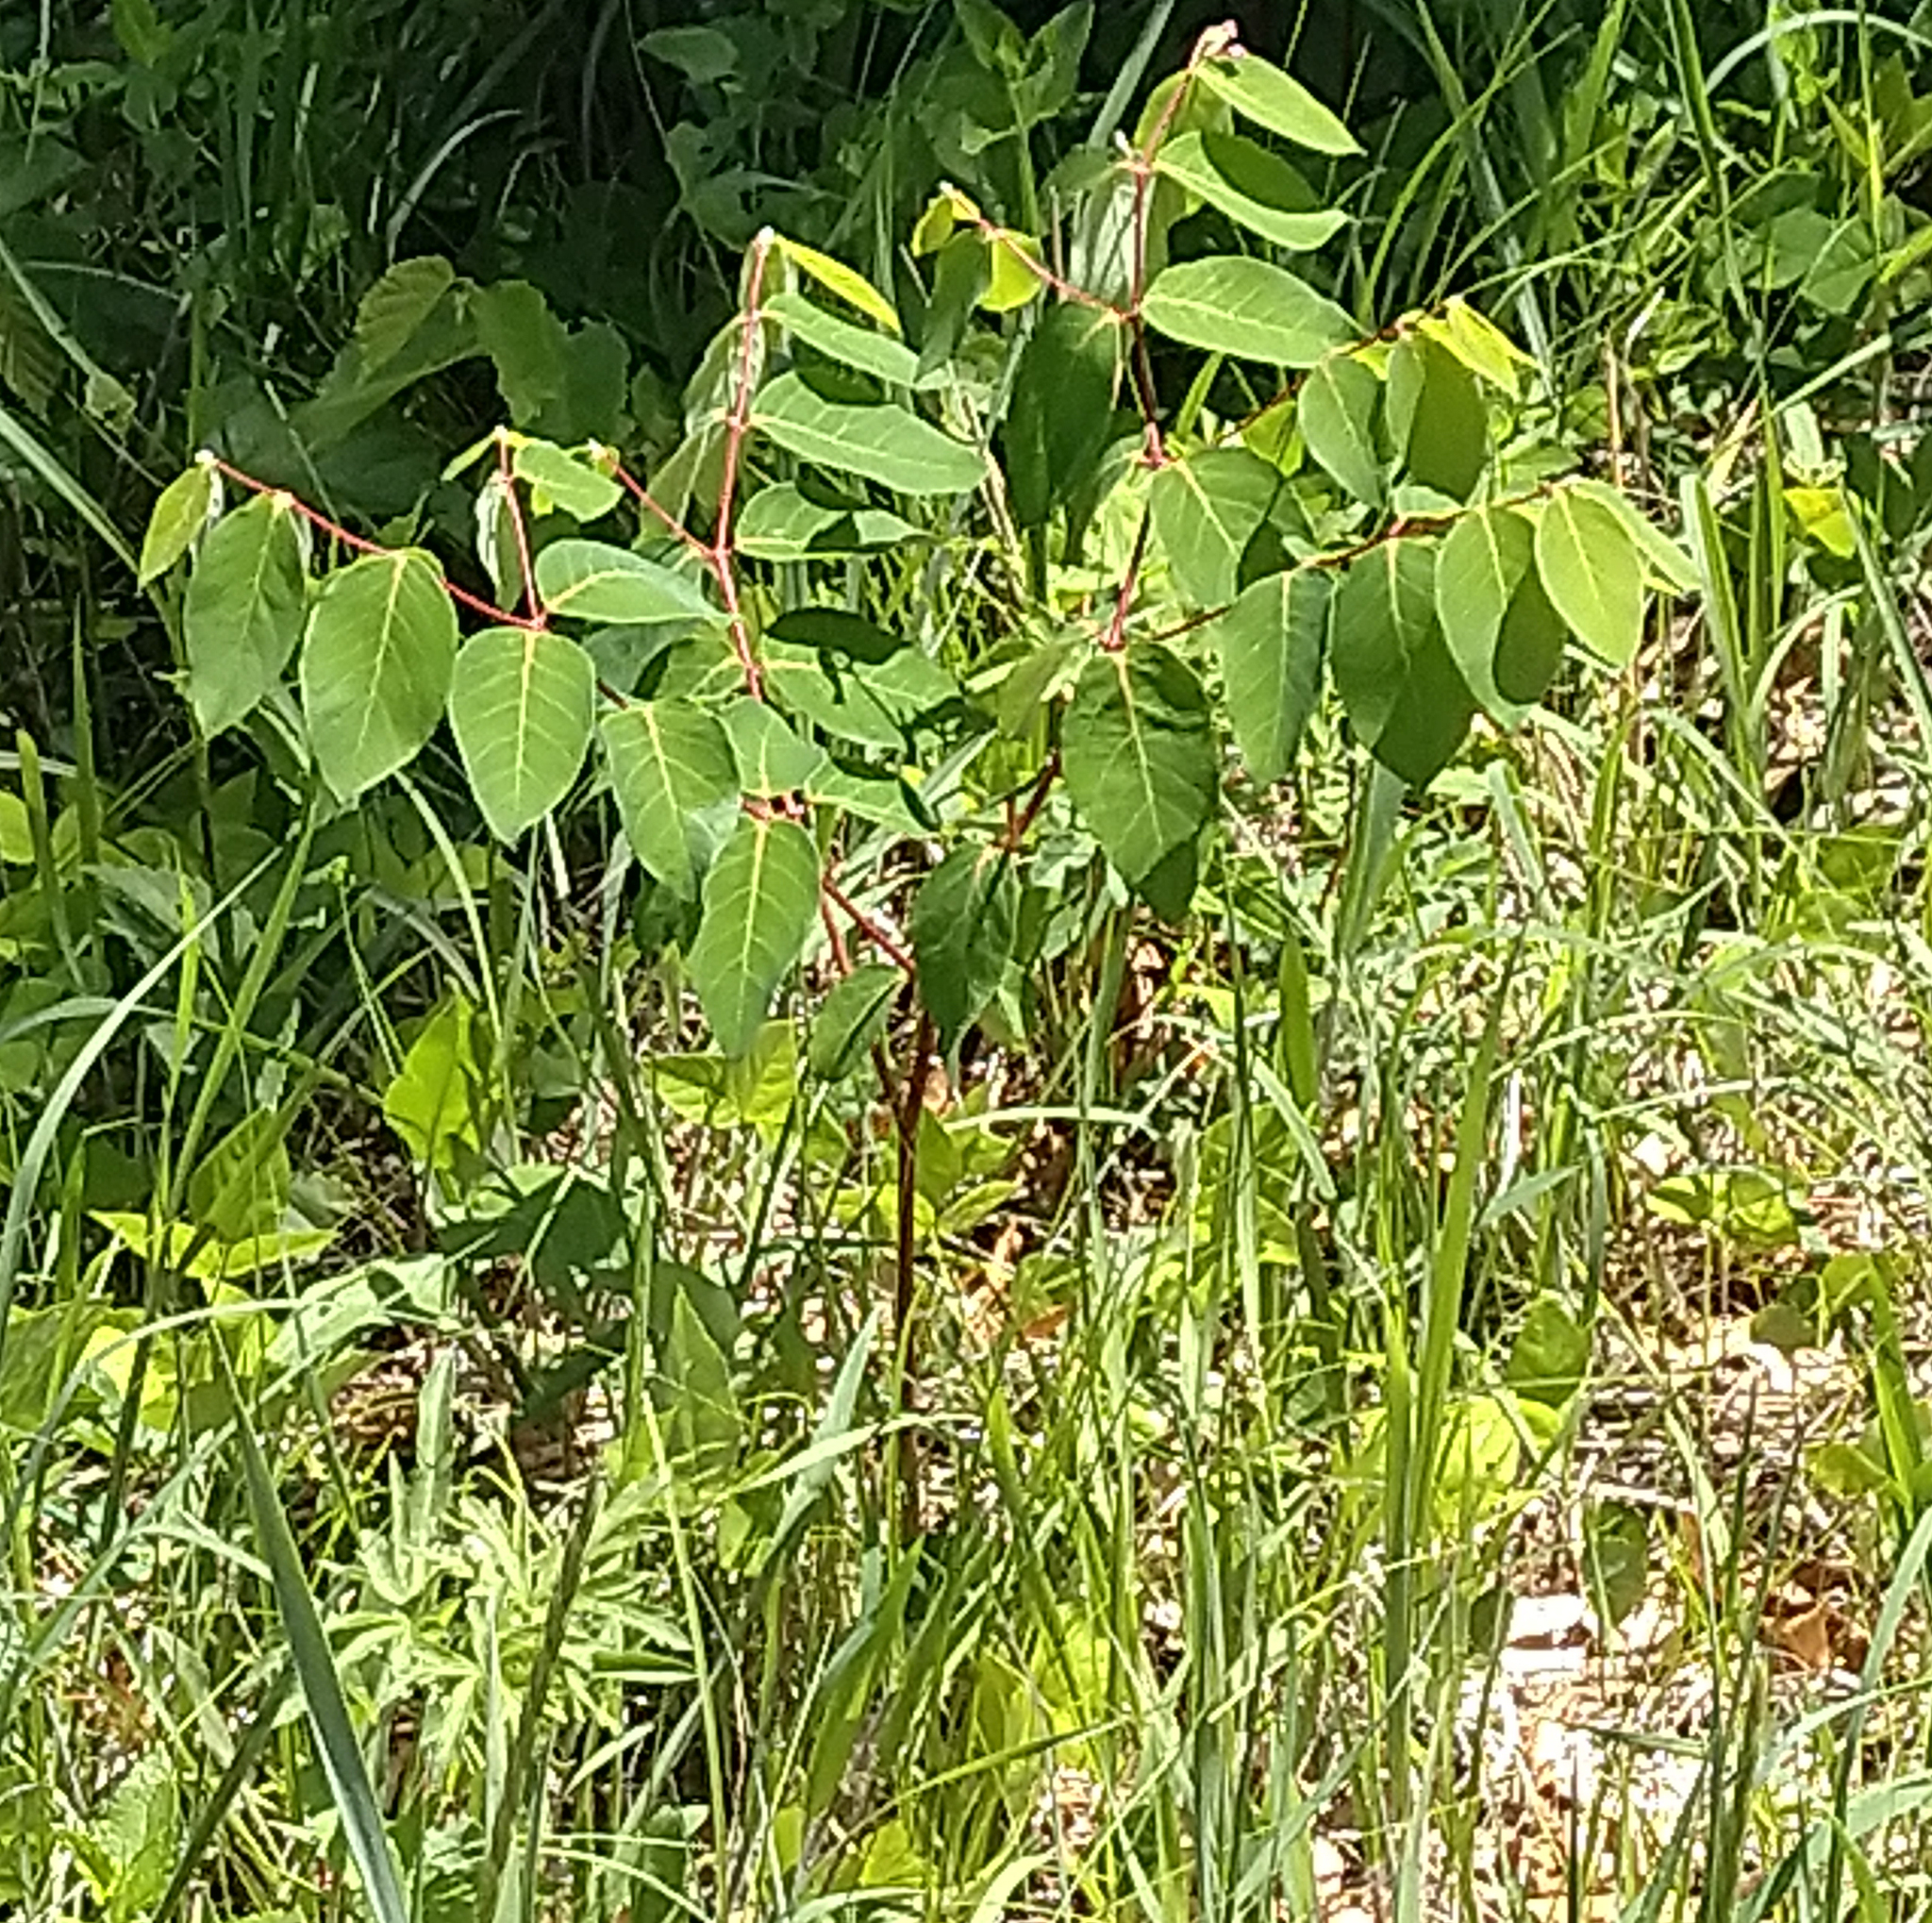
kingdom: Plantae
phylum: Tracheophyta
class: Magnoliopsida
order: Gentianales
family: Apocynaceae
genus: Apocynum
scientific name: Apocynum androsaemifolium
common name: Spreading dogbane
